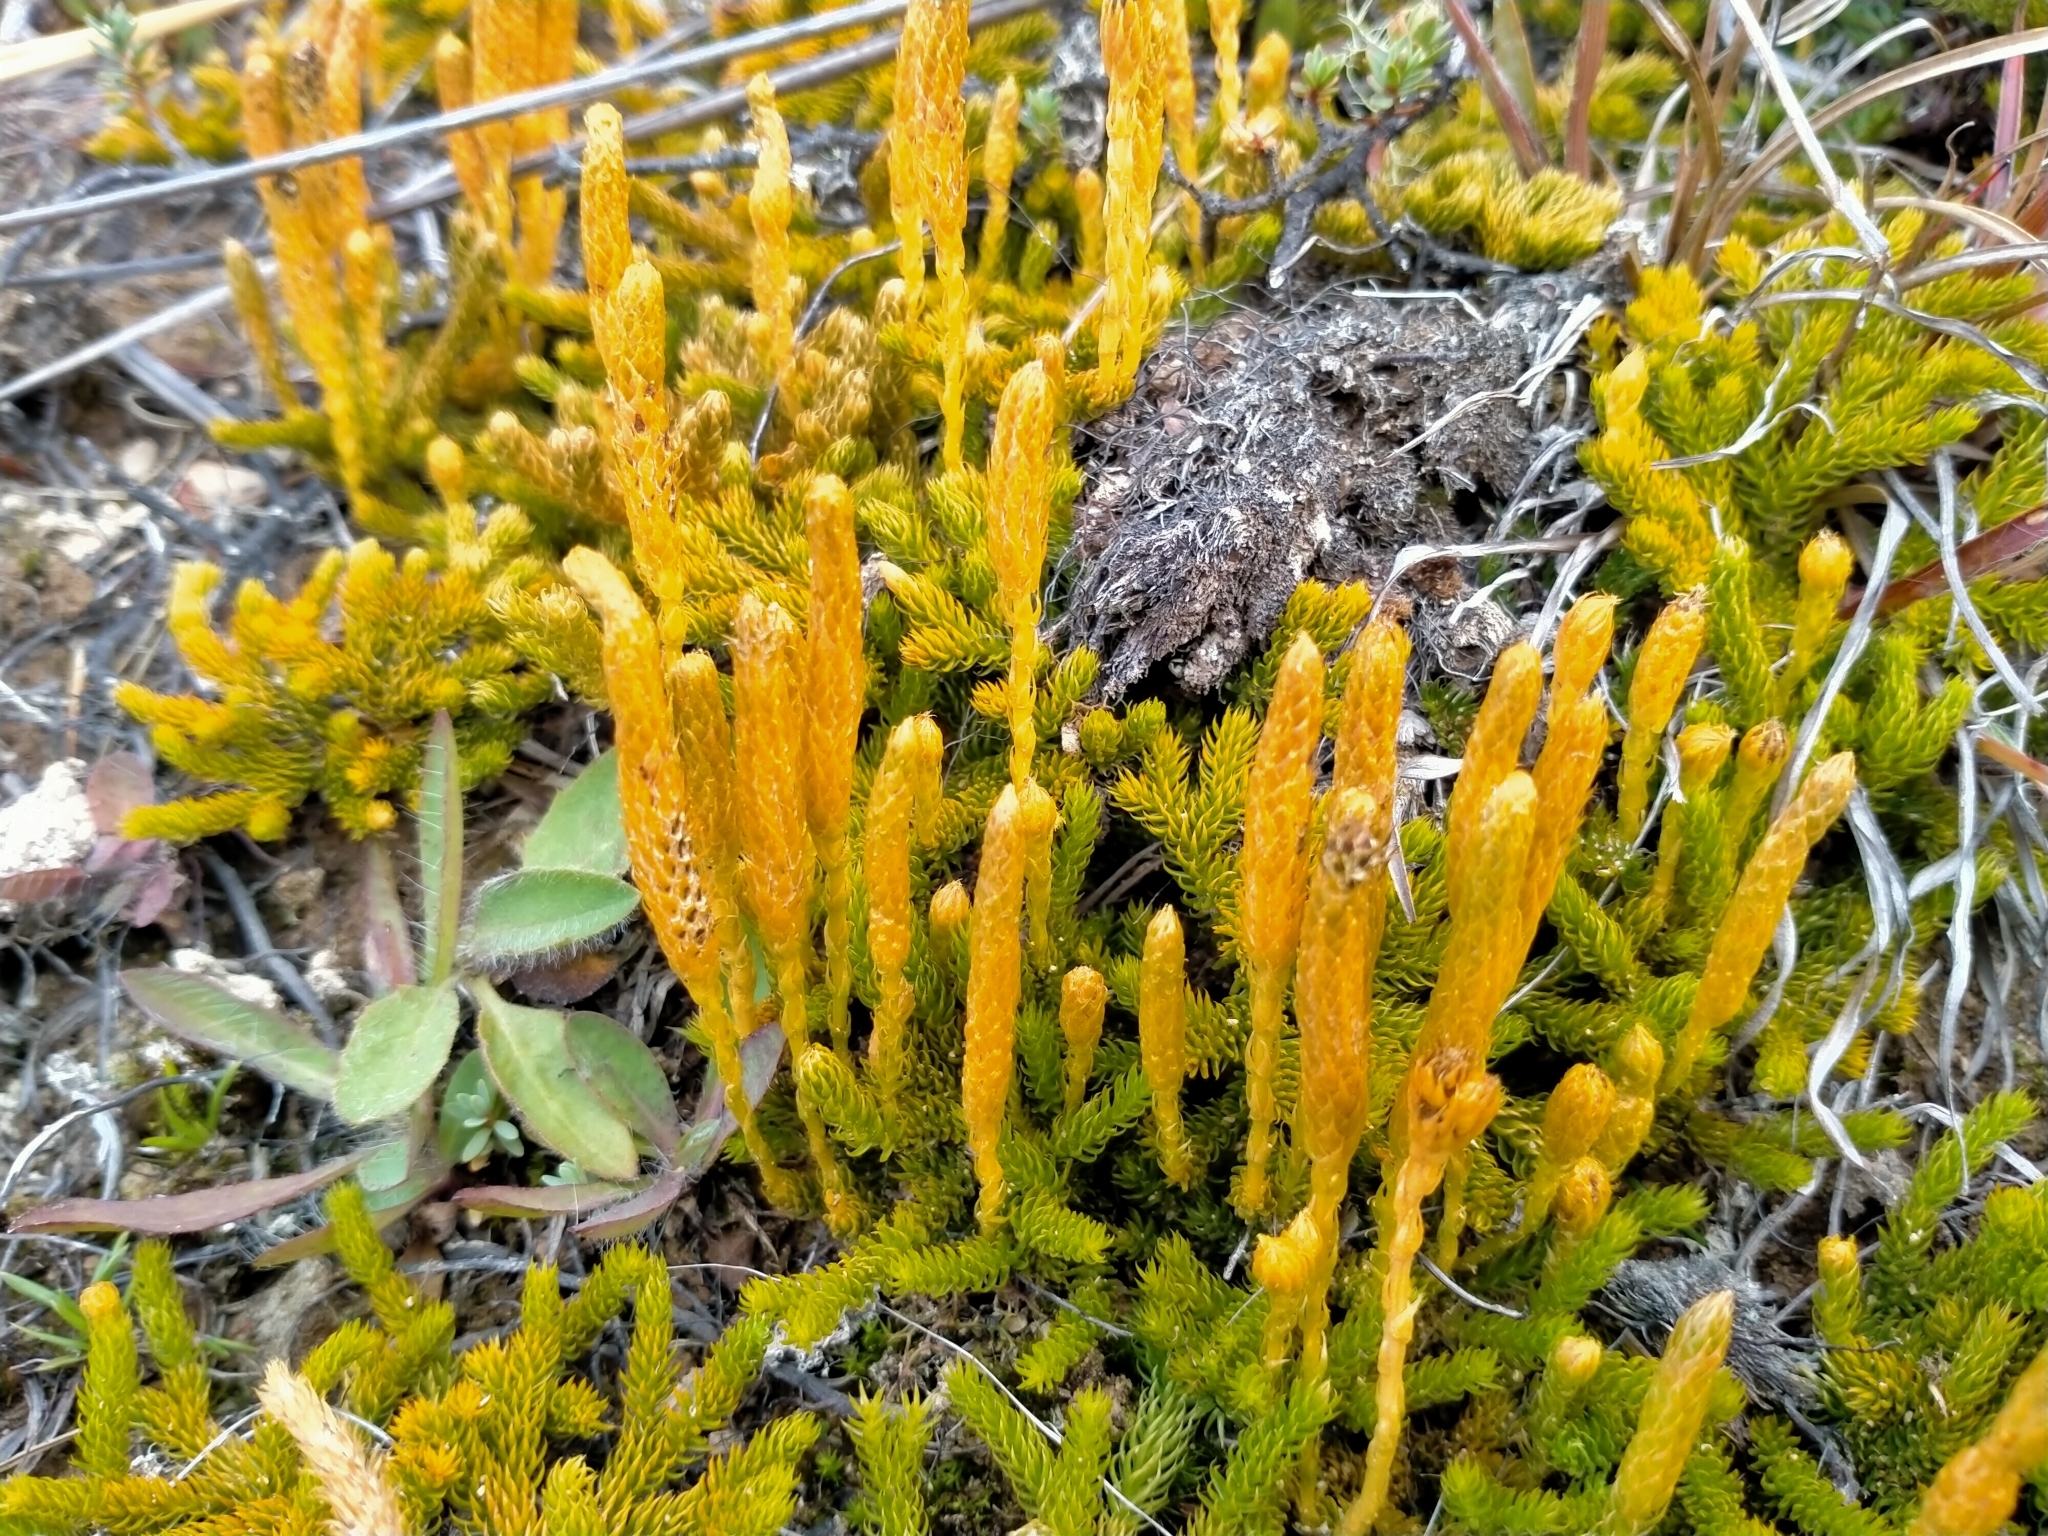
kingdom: Plantae
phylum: Tracheophyta
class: Lycopodiopsida
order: Lycopodiales
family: Lycopodiaceae
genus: Austrolycopodium
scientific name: Austrolycopodium fastigiatum
